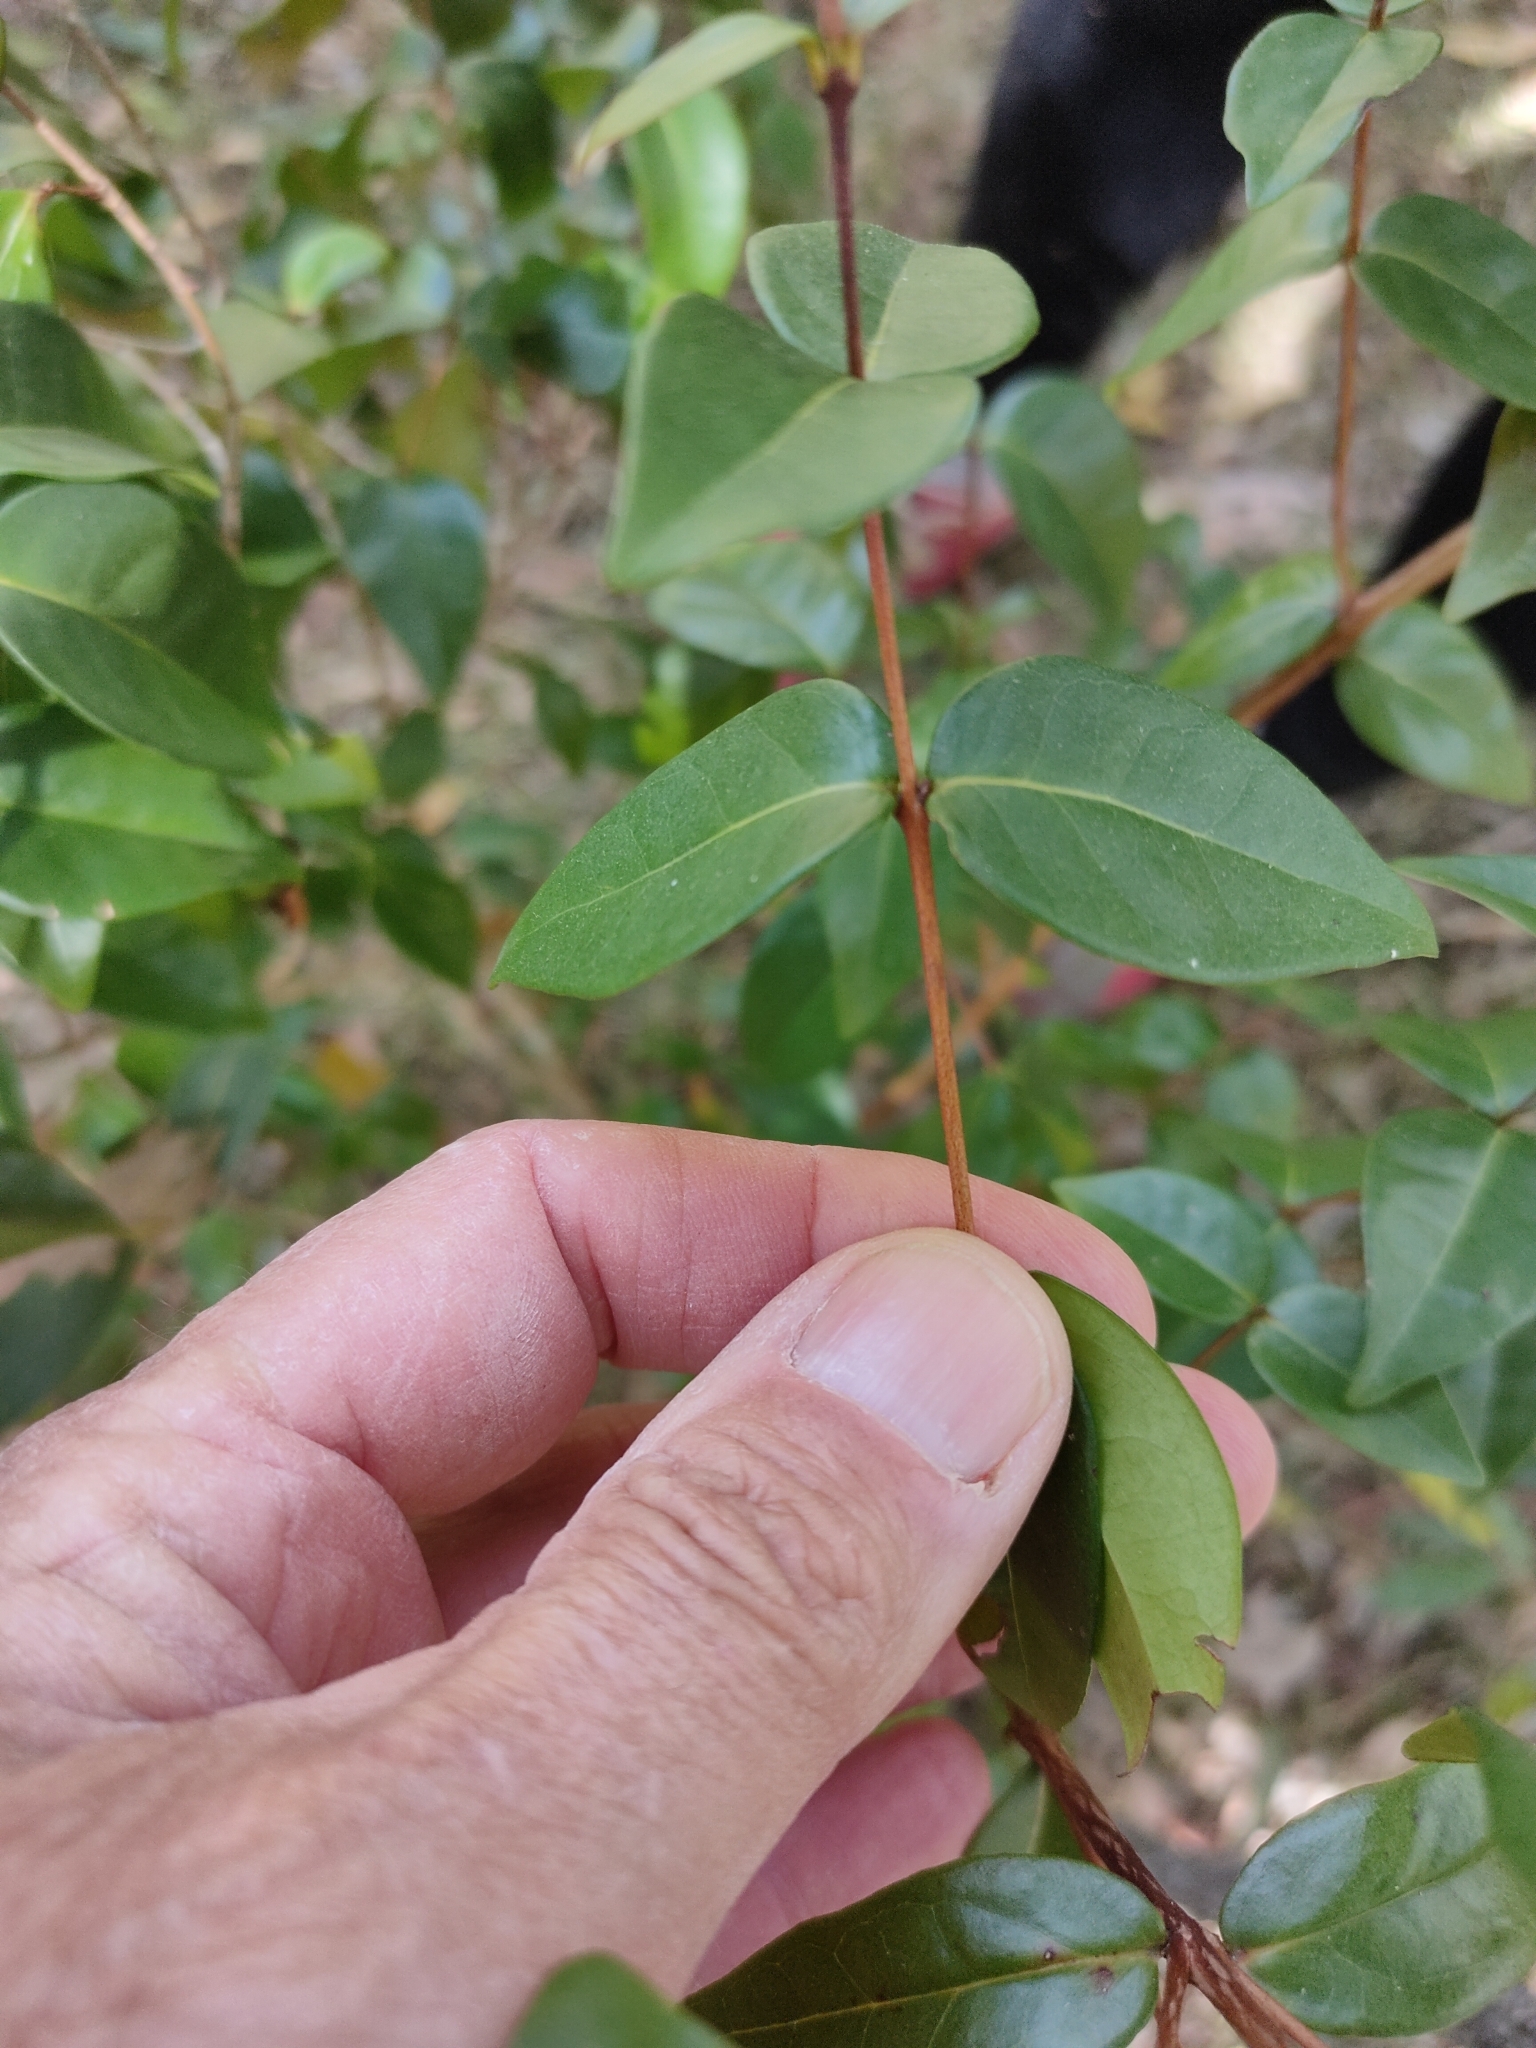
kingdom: Plantae
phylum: Tracheophyta
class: Magnoliopsida
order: Myrtales
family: Myrtaceae
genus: Eugenia
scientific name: Eugenia uniflora
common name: Surinam cherry
